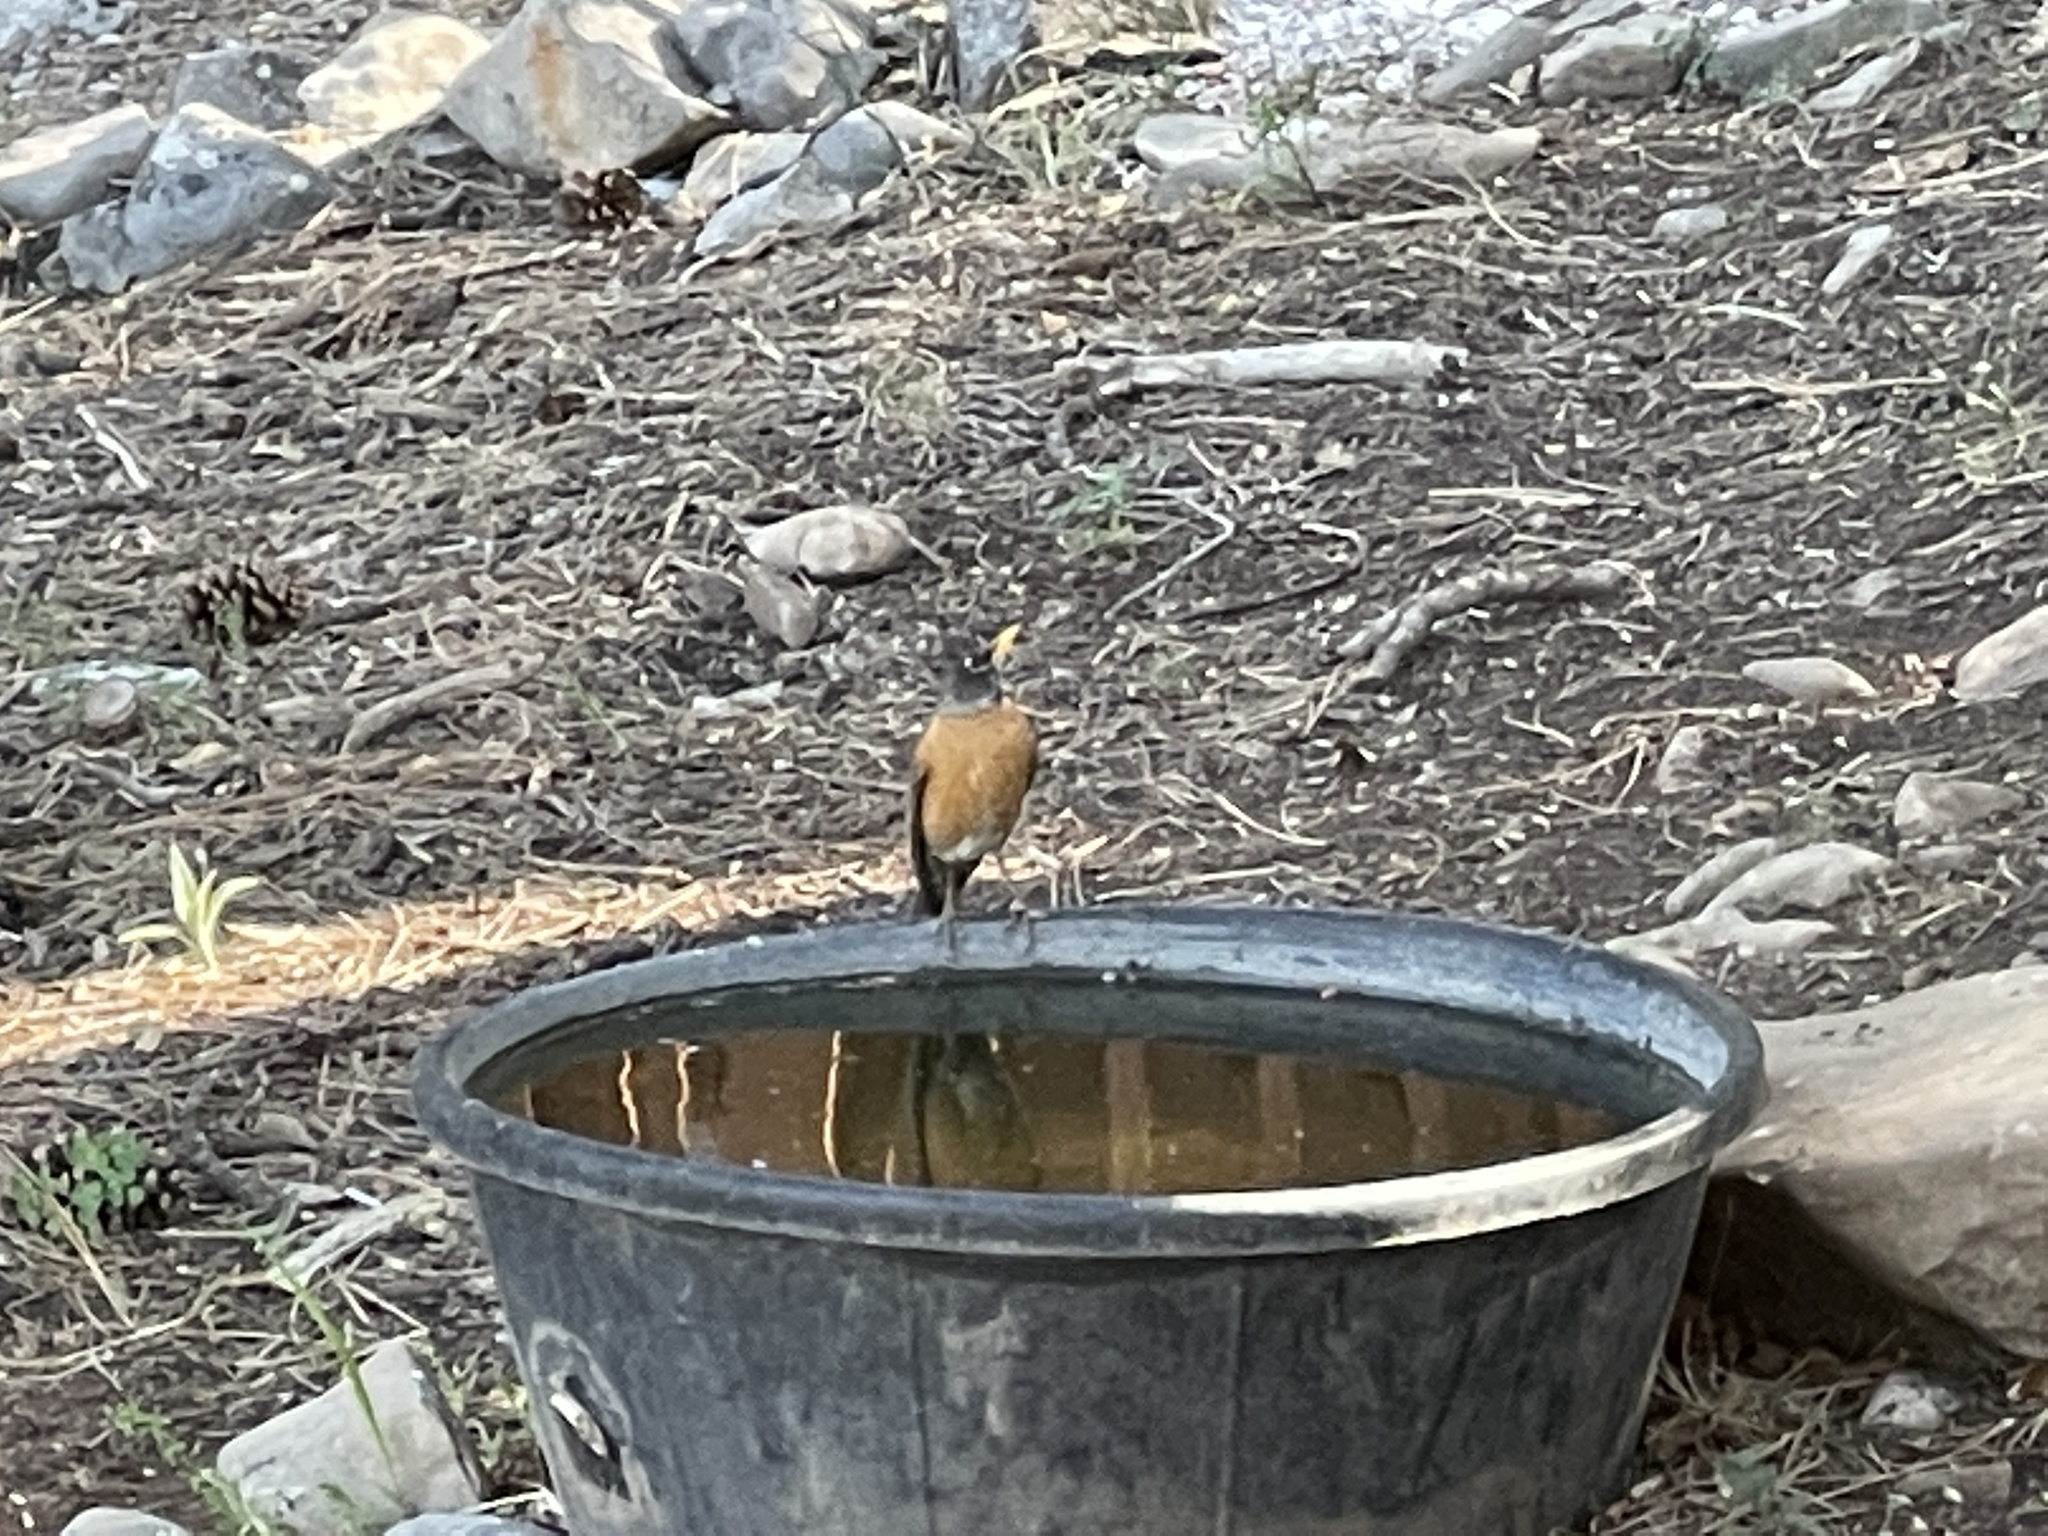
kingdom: Animalia
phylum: Chordata
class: Aves
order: Passeriformes
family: Turdidae
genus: Turdus
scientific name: Turdus migratorius
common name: American robin
